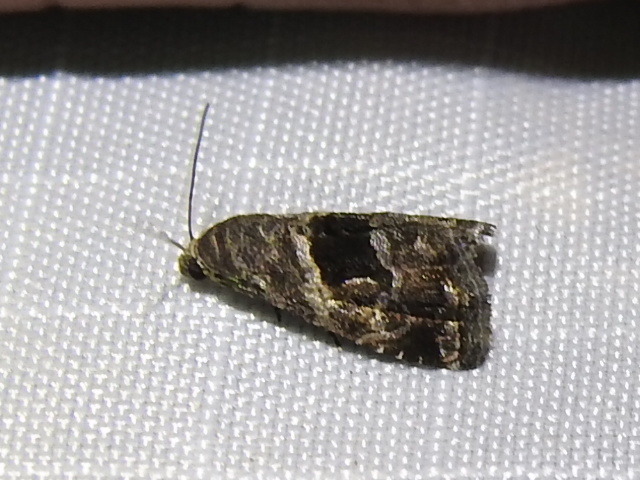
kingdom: Animalia
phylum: Arthropoda
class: Insecta
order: Lepidoptera
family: Noctuidae
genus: Tripudia
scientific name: Tripudia quadrifera
